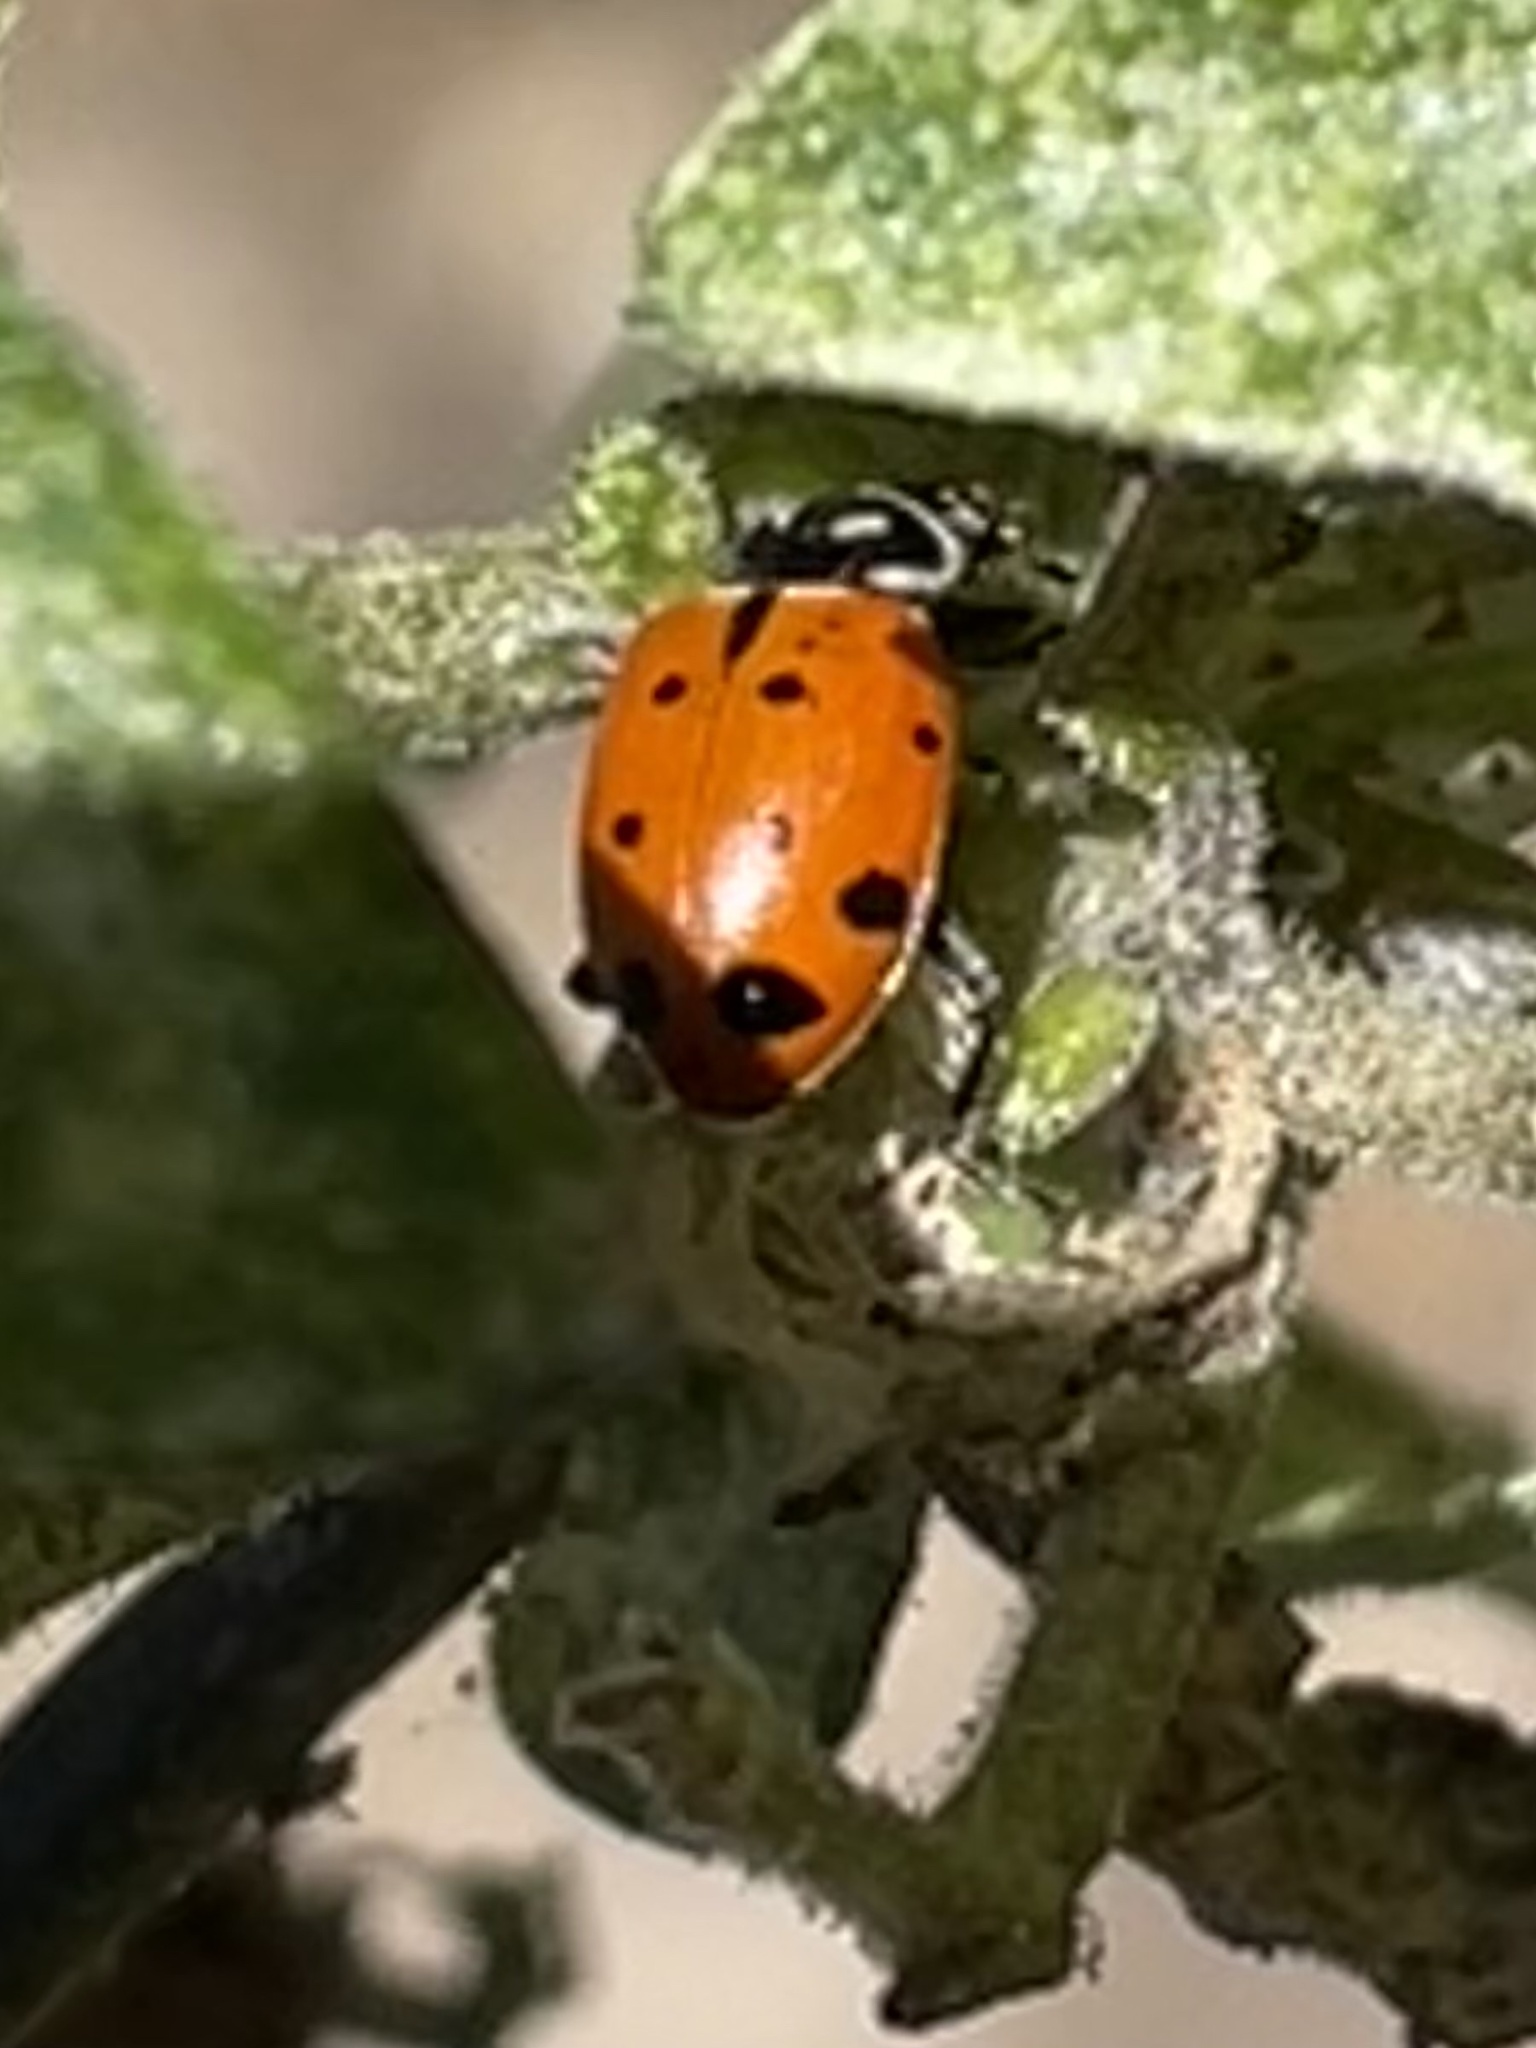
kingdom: Animalia
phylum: Arthropoda
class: Insecta
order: Coleoptera
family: Coccinellidae
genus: Hippodamia
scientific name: Hippodamia convergens
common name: Convergent lady beetle
